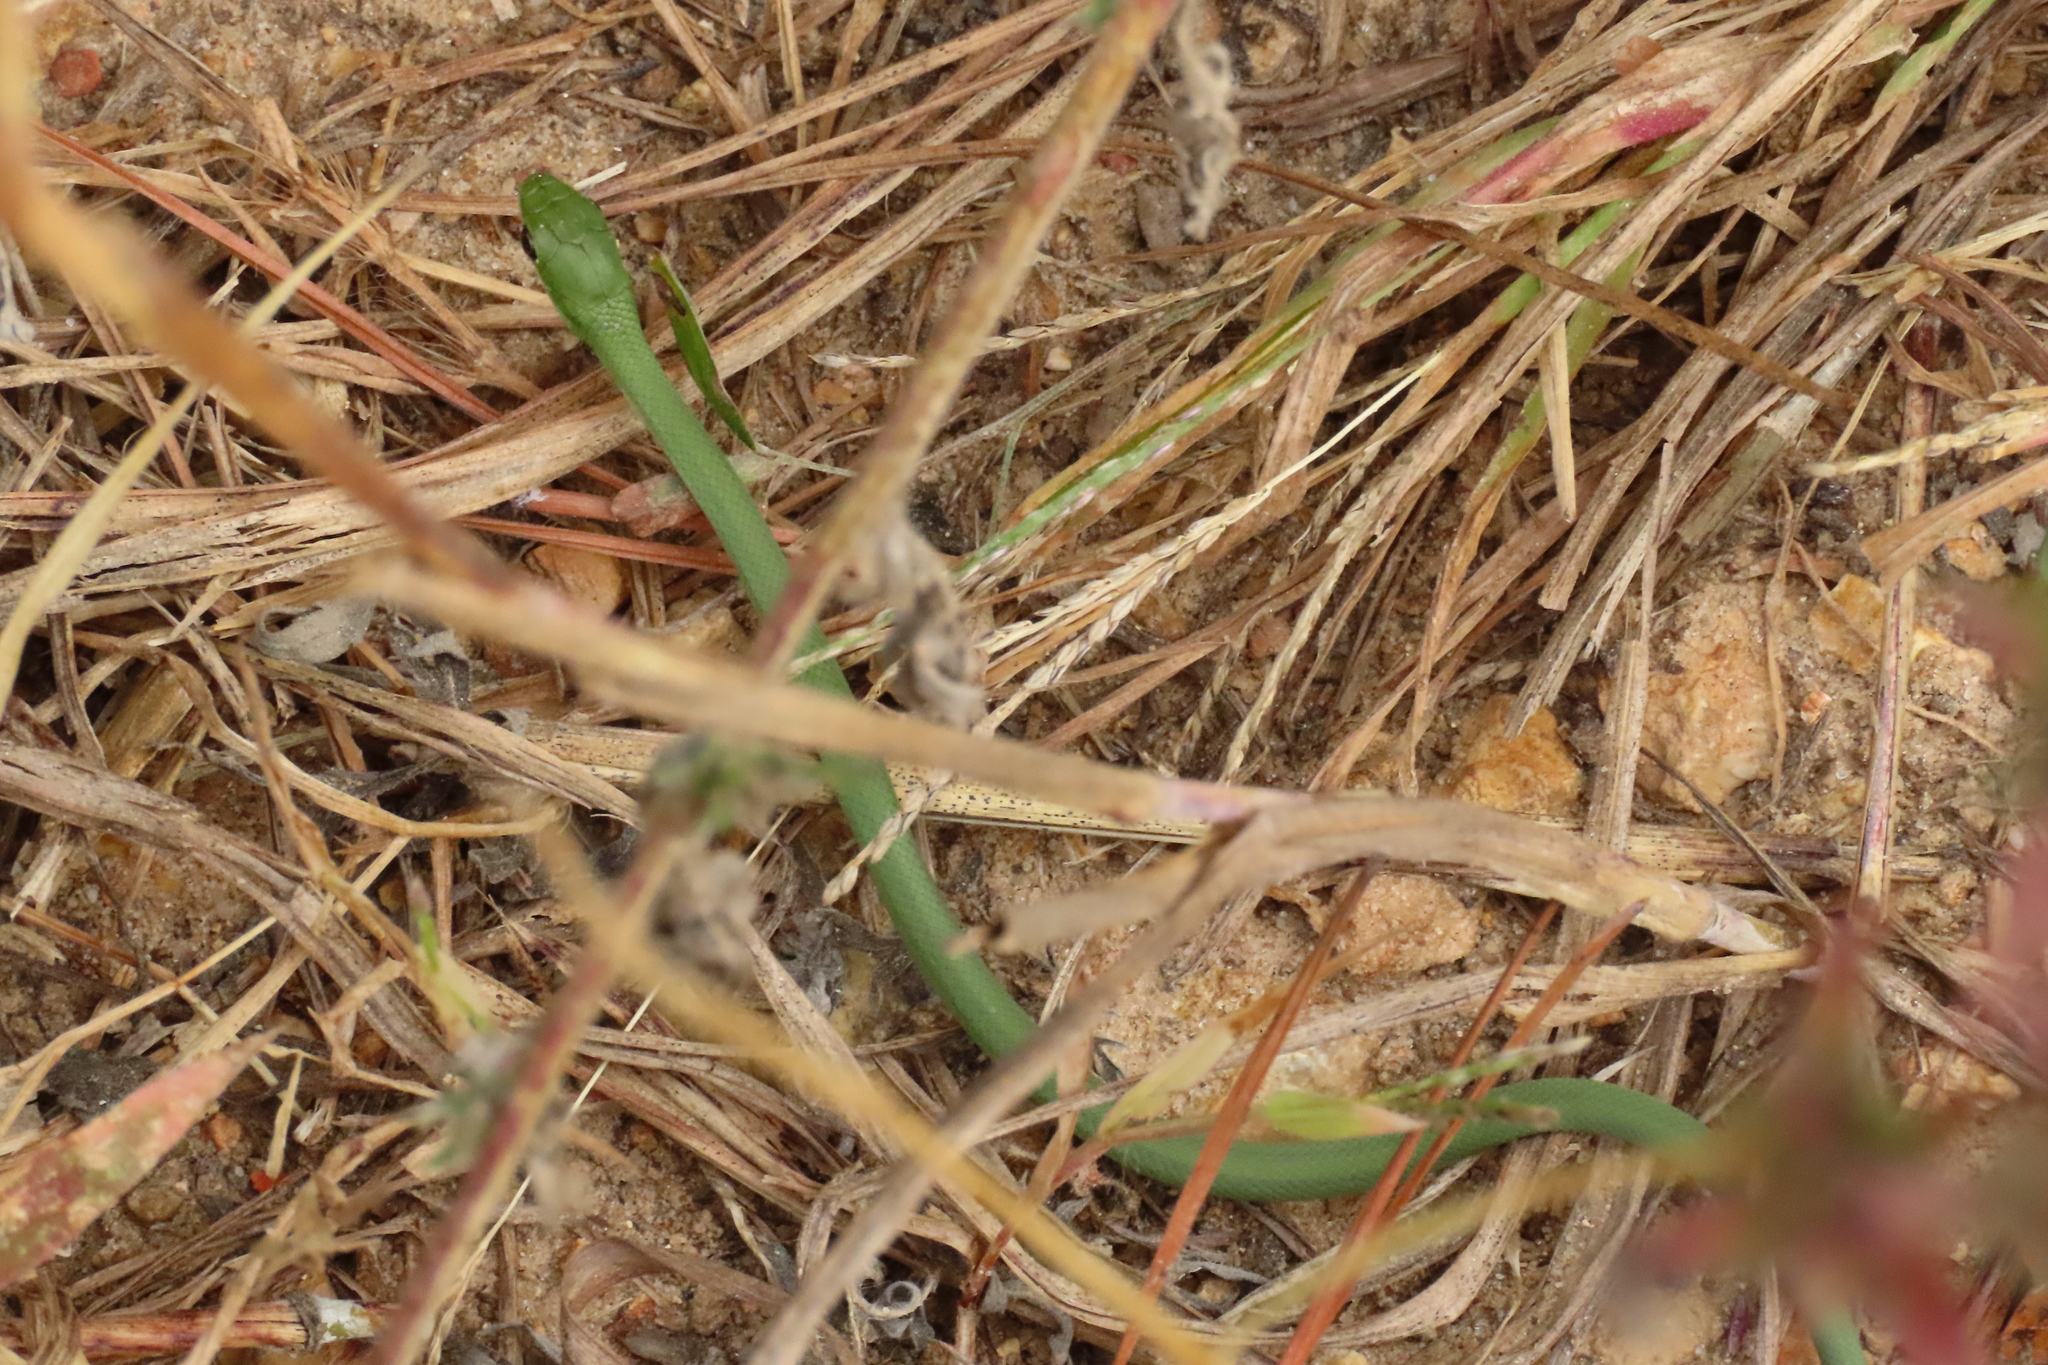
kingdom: Animalia
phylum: Chordata
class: Squamata
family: Colubridae
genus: Opheodrys
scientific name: Opheodrys aestivus
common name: Rough greensnake
